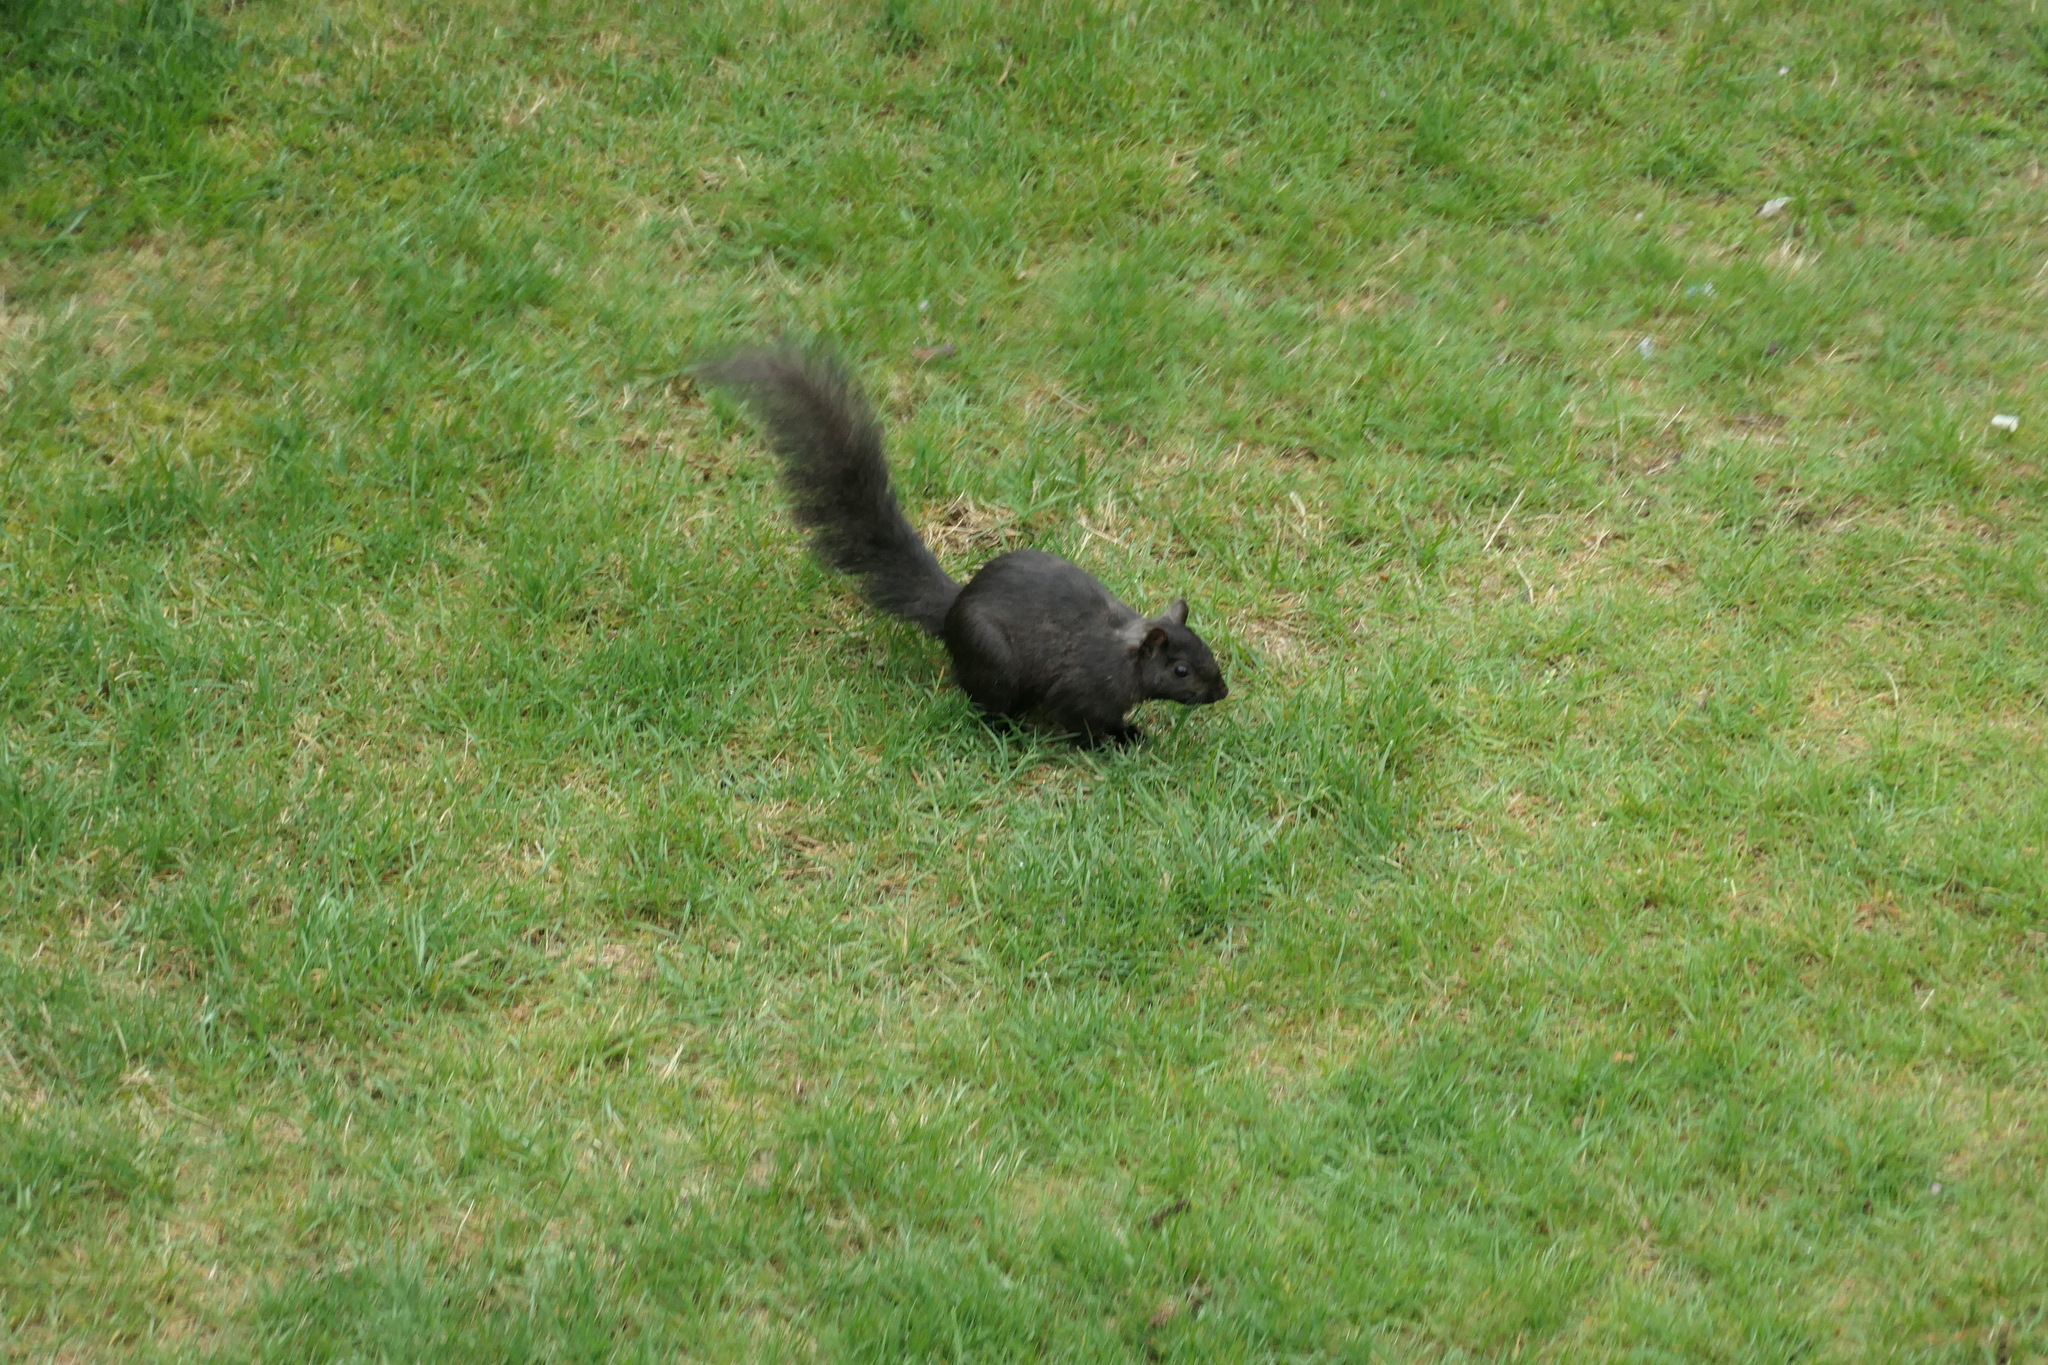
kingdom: Animalia
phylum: Chordata
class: Mammalia
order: Rodentia
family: Sciuridae
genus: Sciurus
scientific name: Sciurus carolinensis
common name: Eastern gray squirrel
